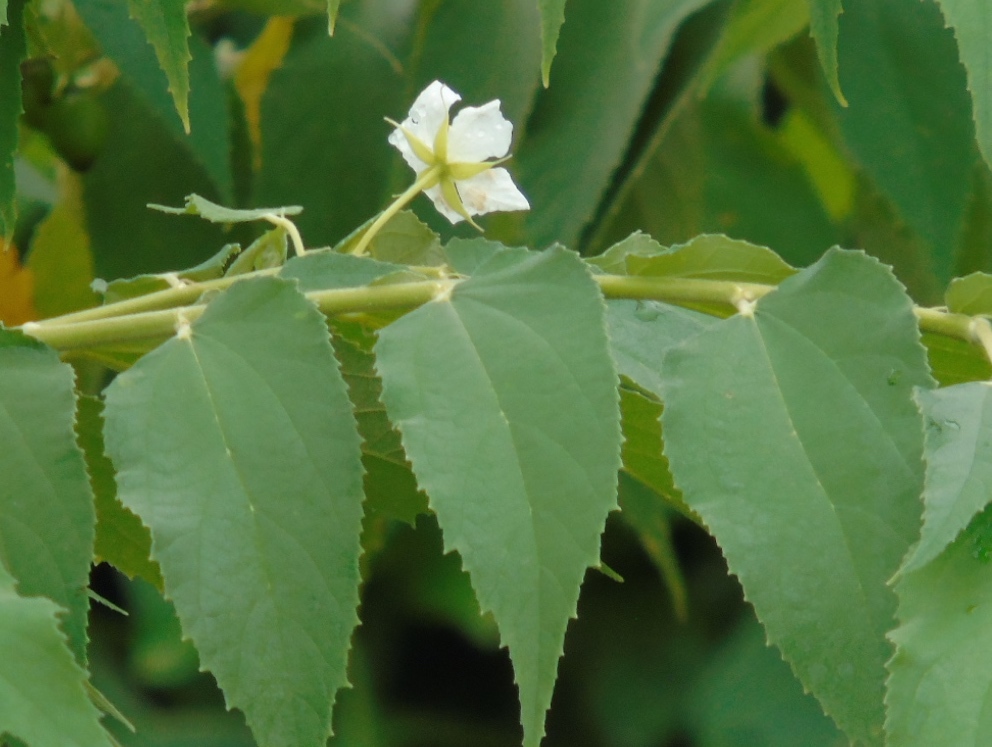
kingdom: Plantae
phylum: Tracheophyta
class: Magnoliopsida
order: Malvales
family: Muntingiaceae
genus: Muntingia
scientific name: Muntingia calabura
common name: Strawberrytree
